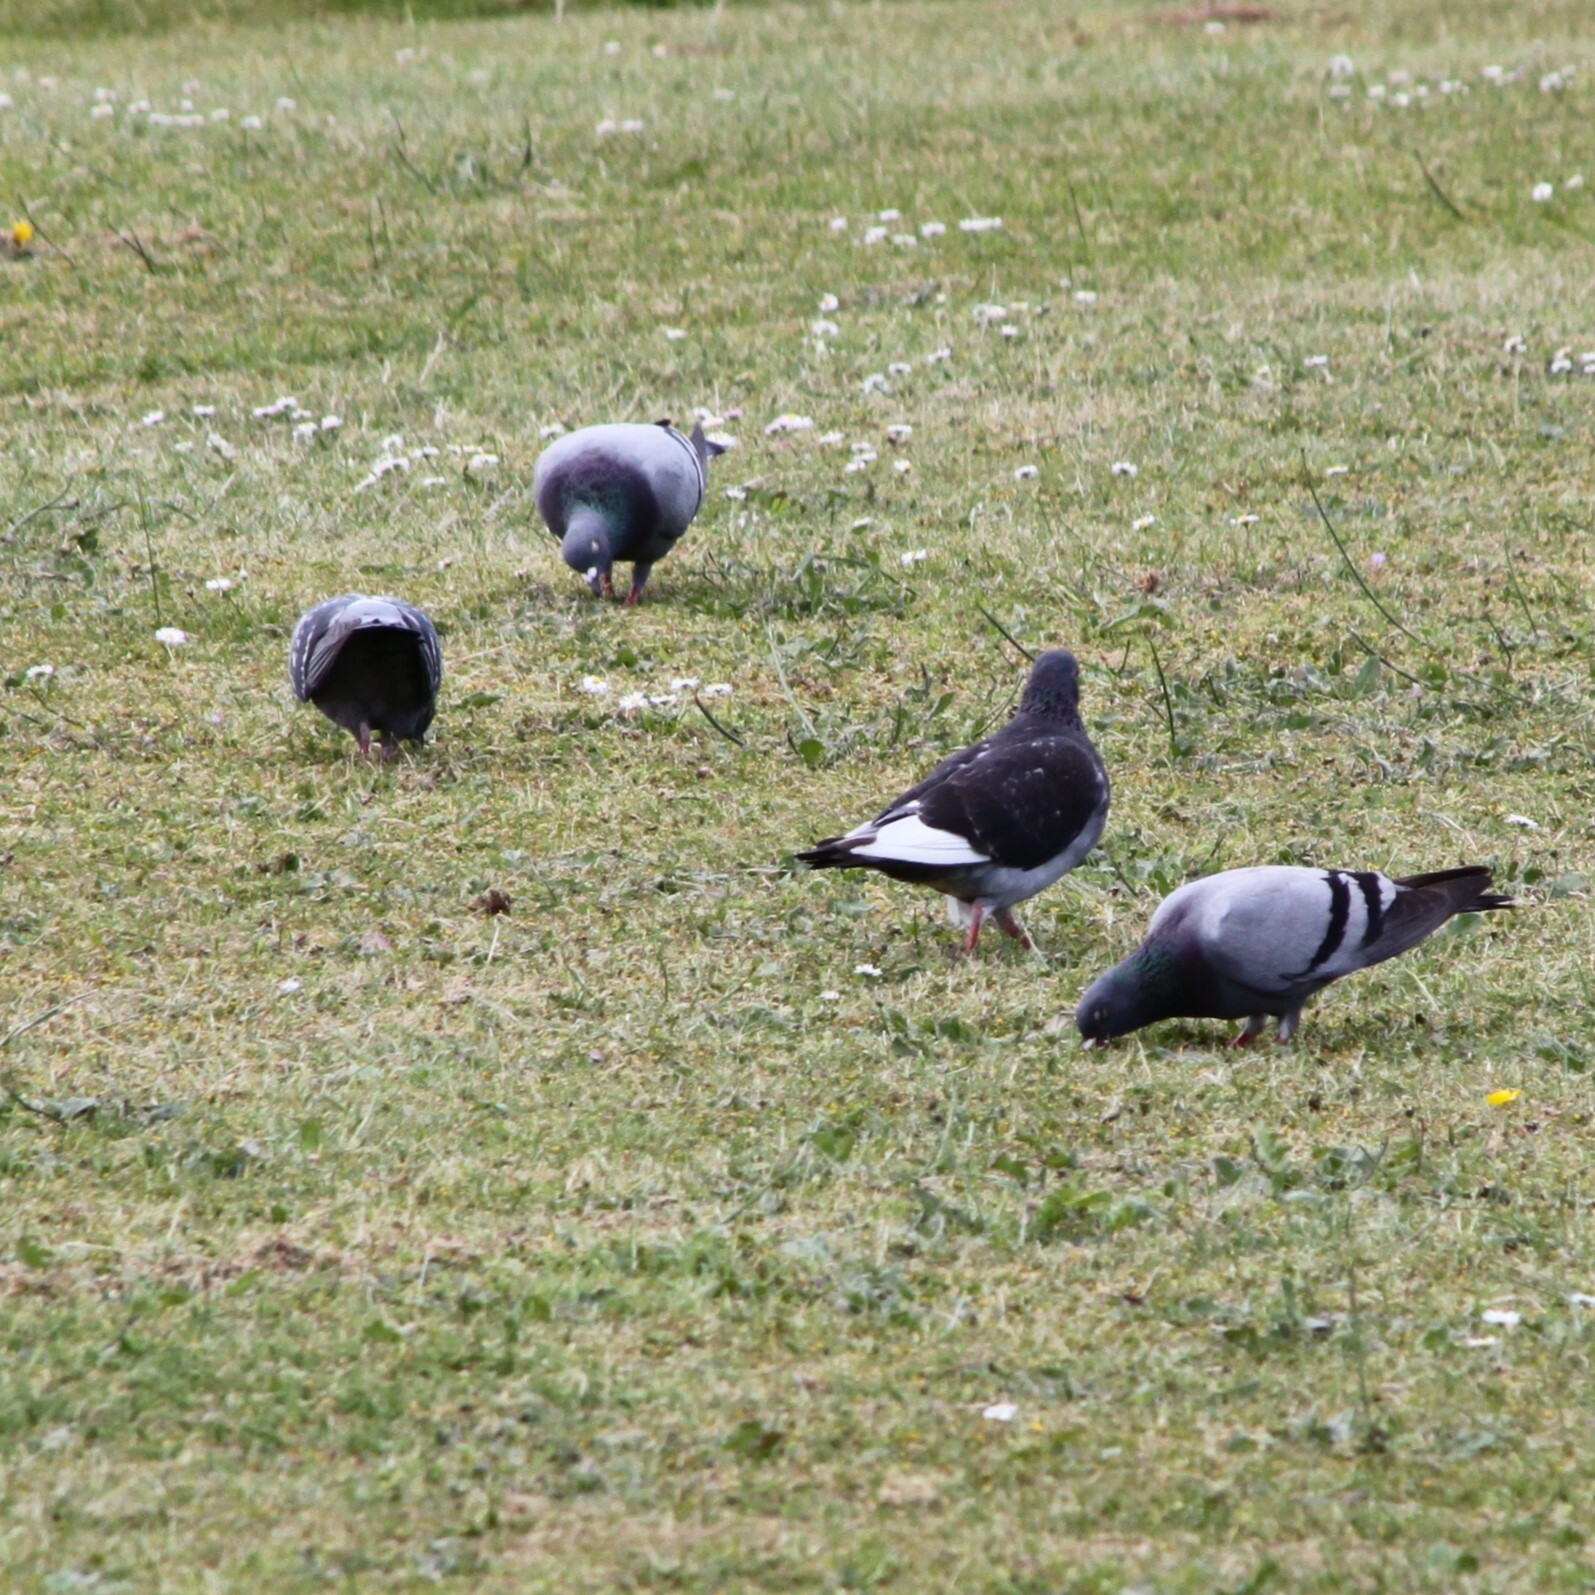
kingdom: Animalia
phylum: Chordata
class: Aves
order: Columbiformes
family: Columbidae
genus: Columba
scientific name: Columba livia
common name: Rock pigeon
